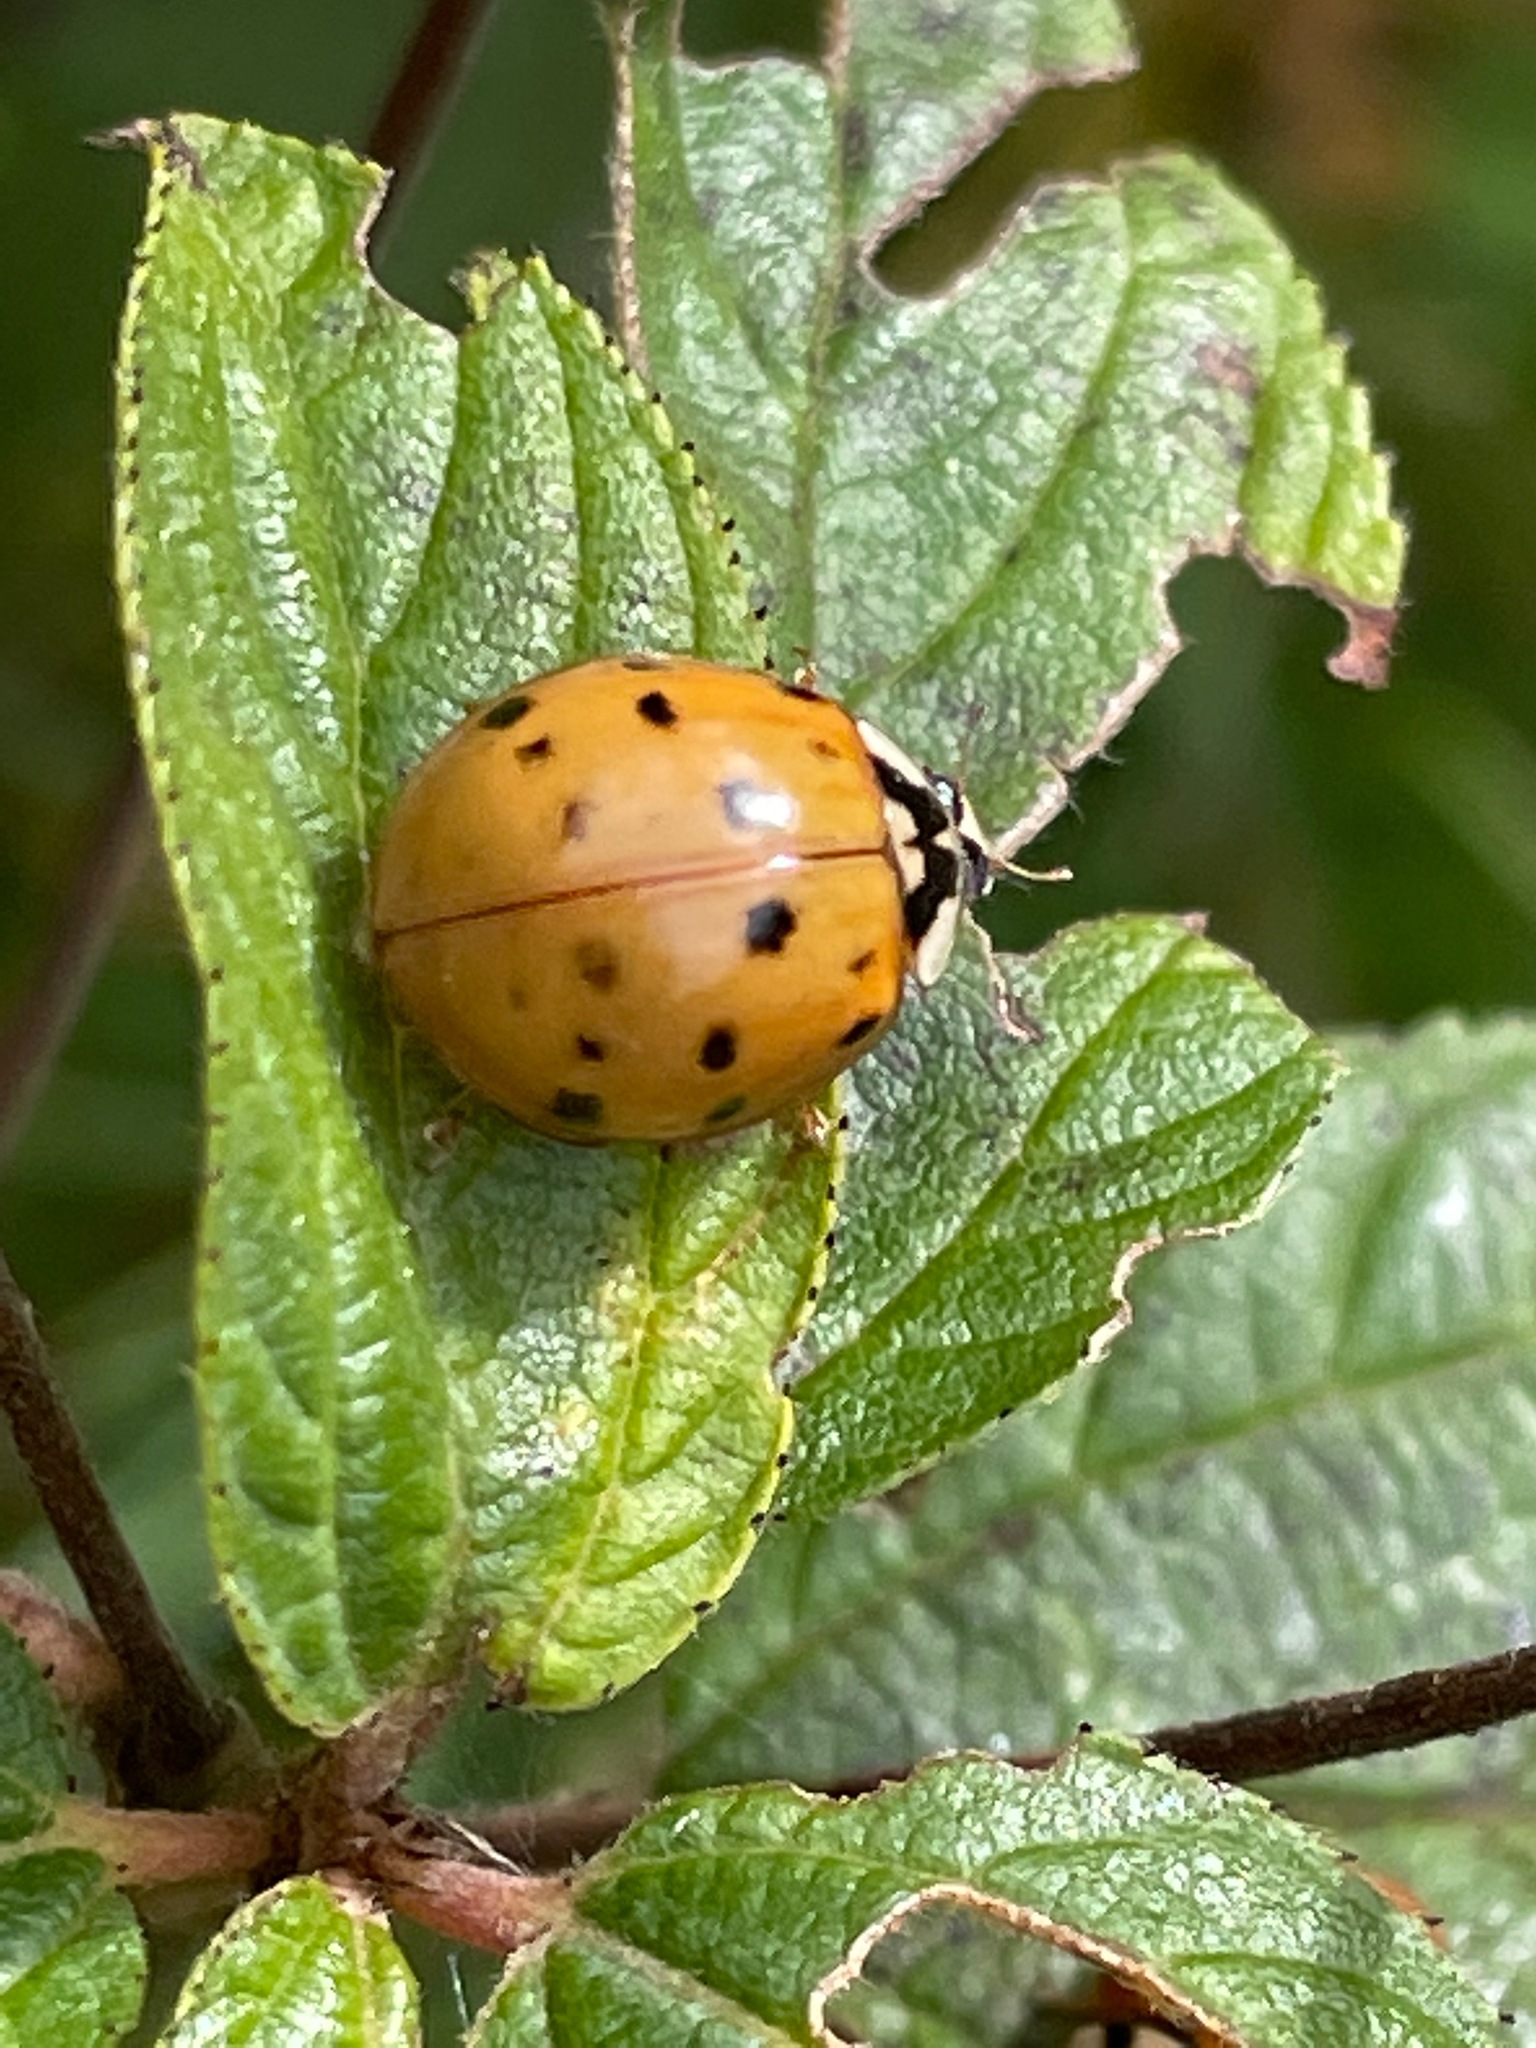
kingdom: Animalia
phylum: Arthropoda
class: Insecta
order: Coleoptera
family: Coccinellidae
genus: Harmonia
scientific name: Harmonia axyridis
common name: Harlequin ladybird
